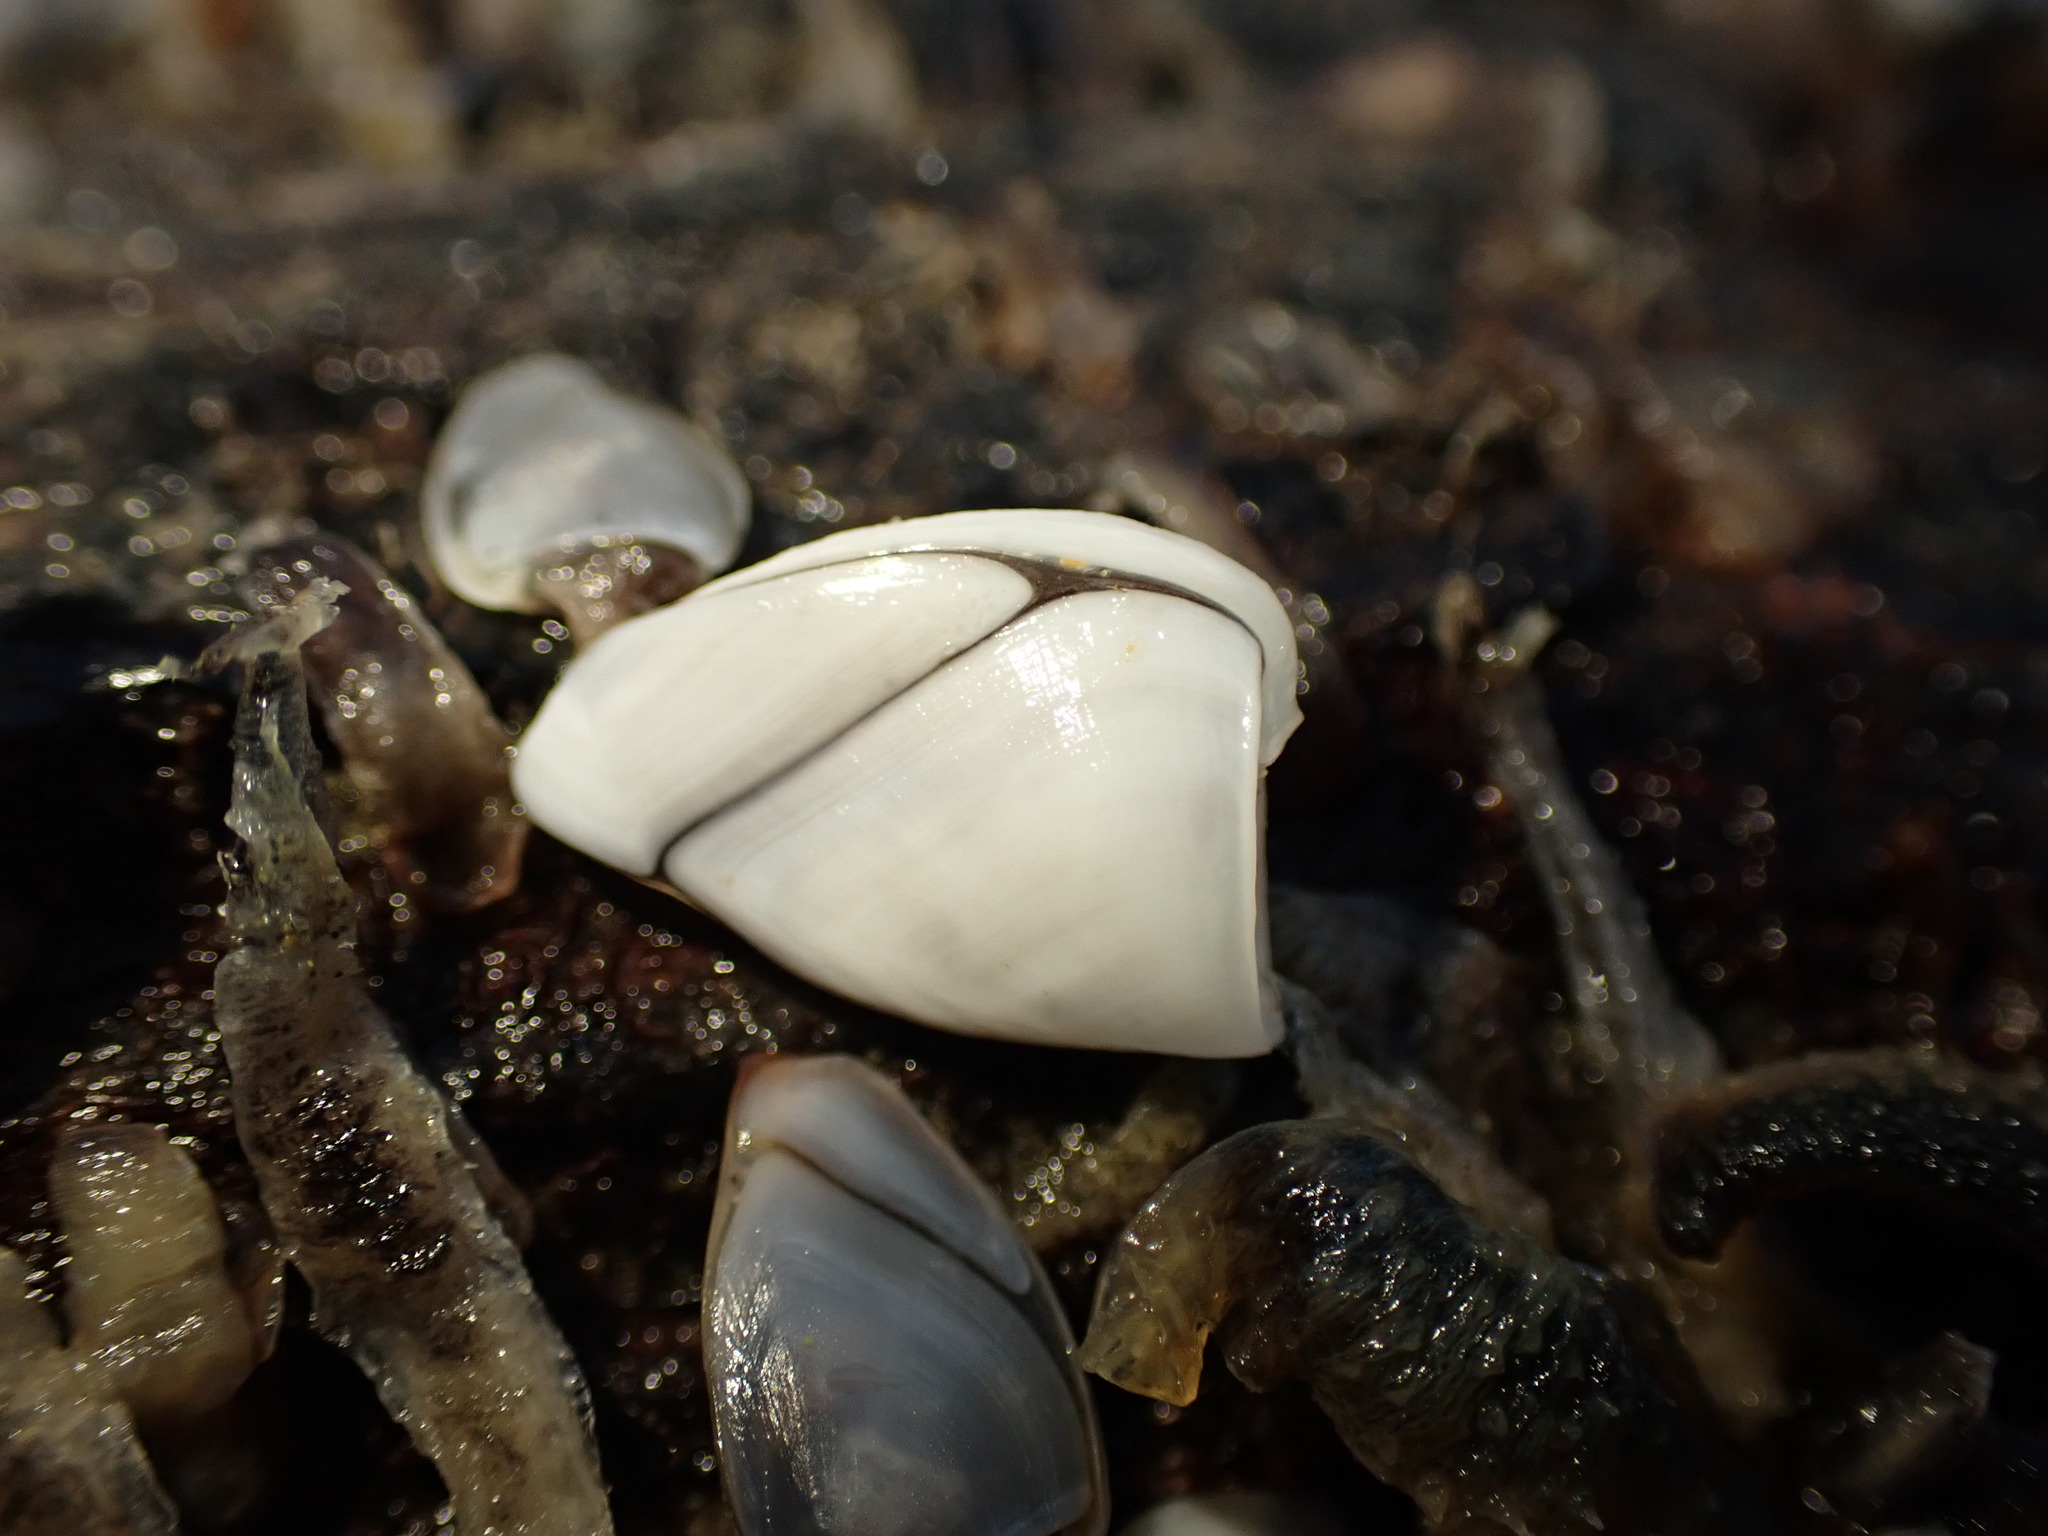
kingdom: Animalia
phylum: Arthropoda
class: Maxillopoda
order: Pedunculata
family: Lepadidae
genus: Lepas
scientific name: Lepas testudinata
